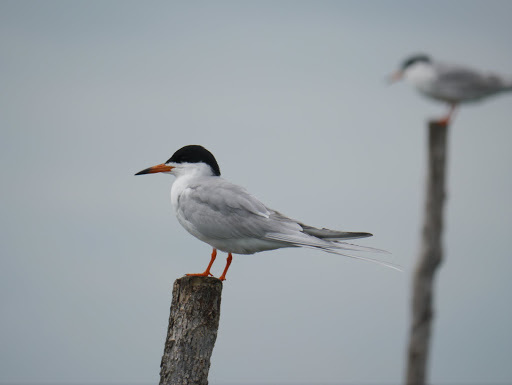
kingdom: Animalia
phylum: Chordata
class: Aves
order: Charadriiformes
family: Laridae
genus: Sterna
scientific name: Sterna forsteri
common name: Forster's tern
